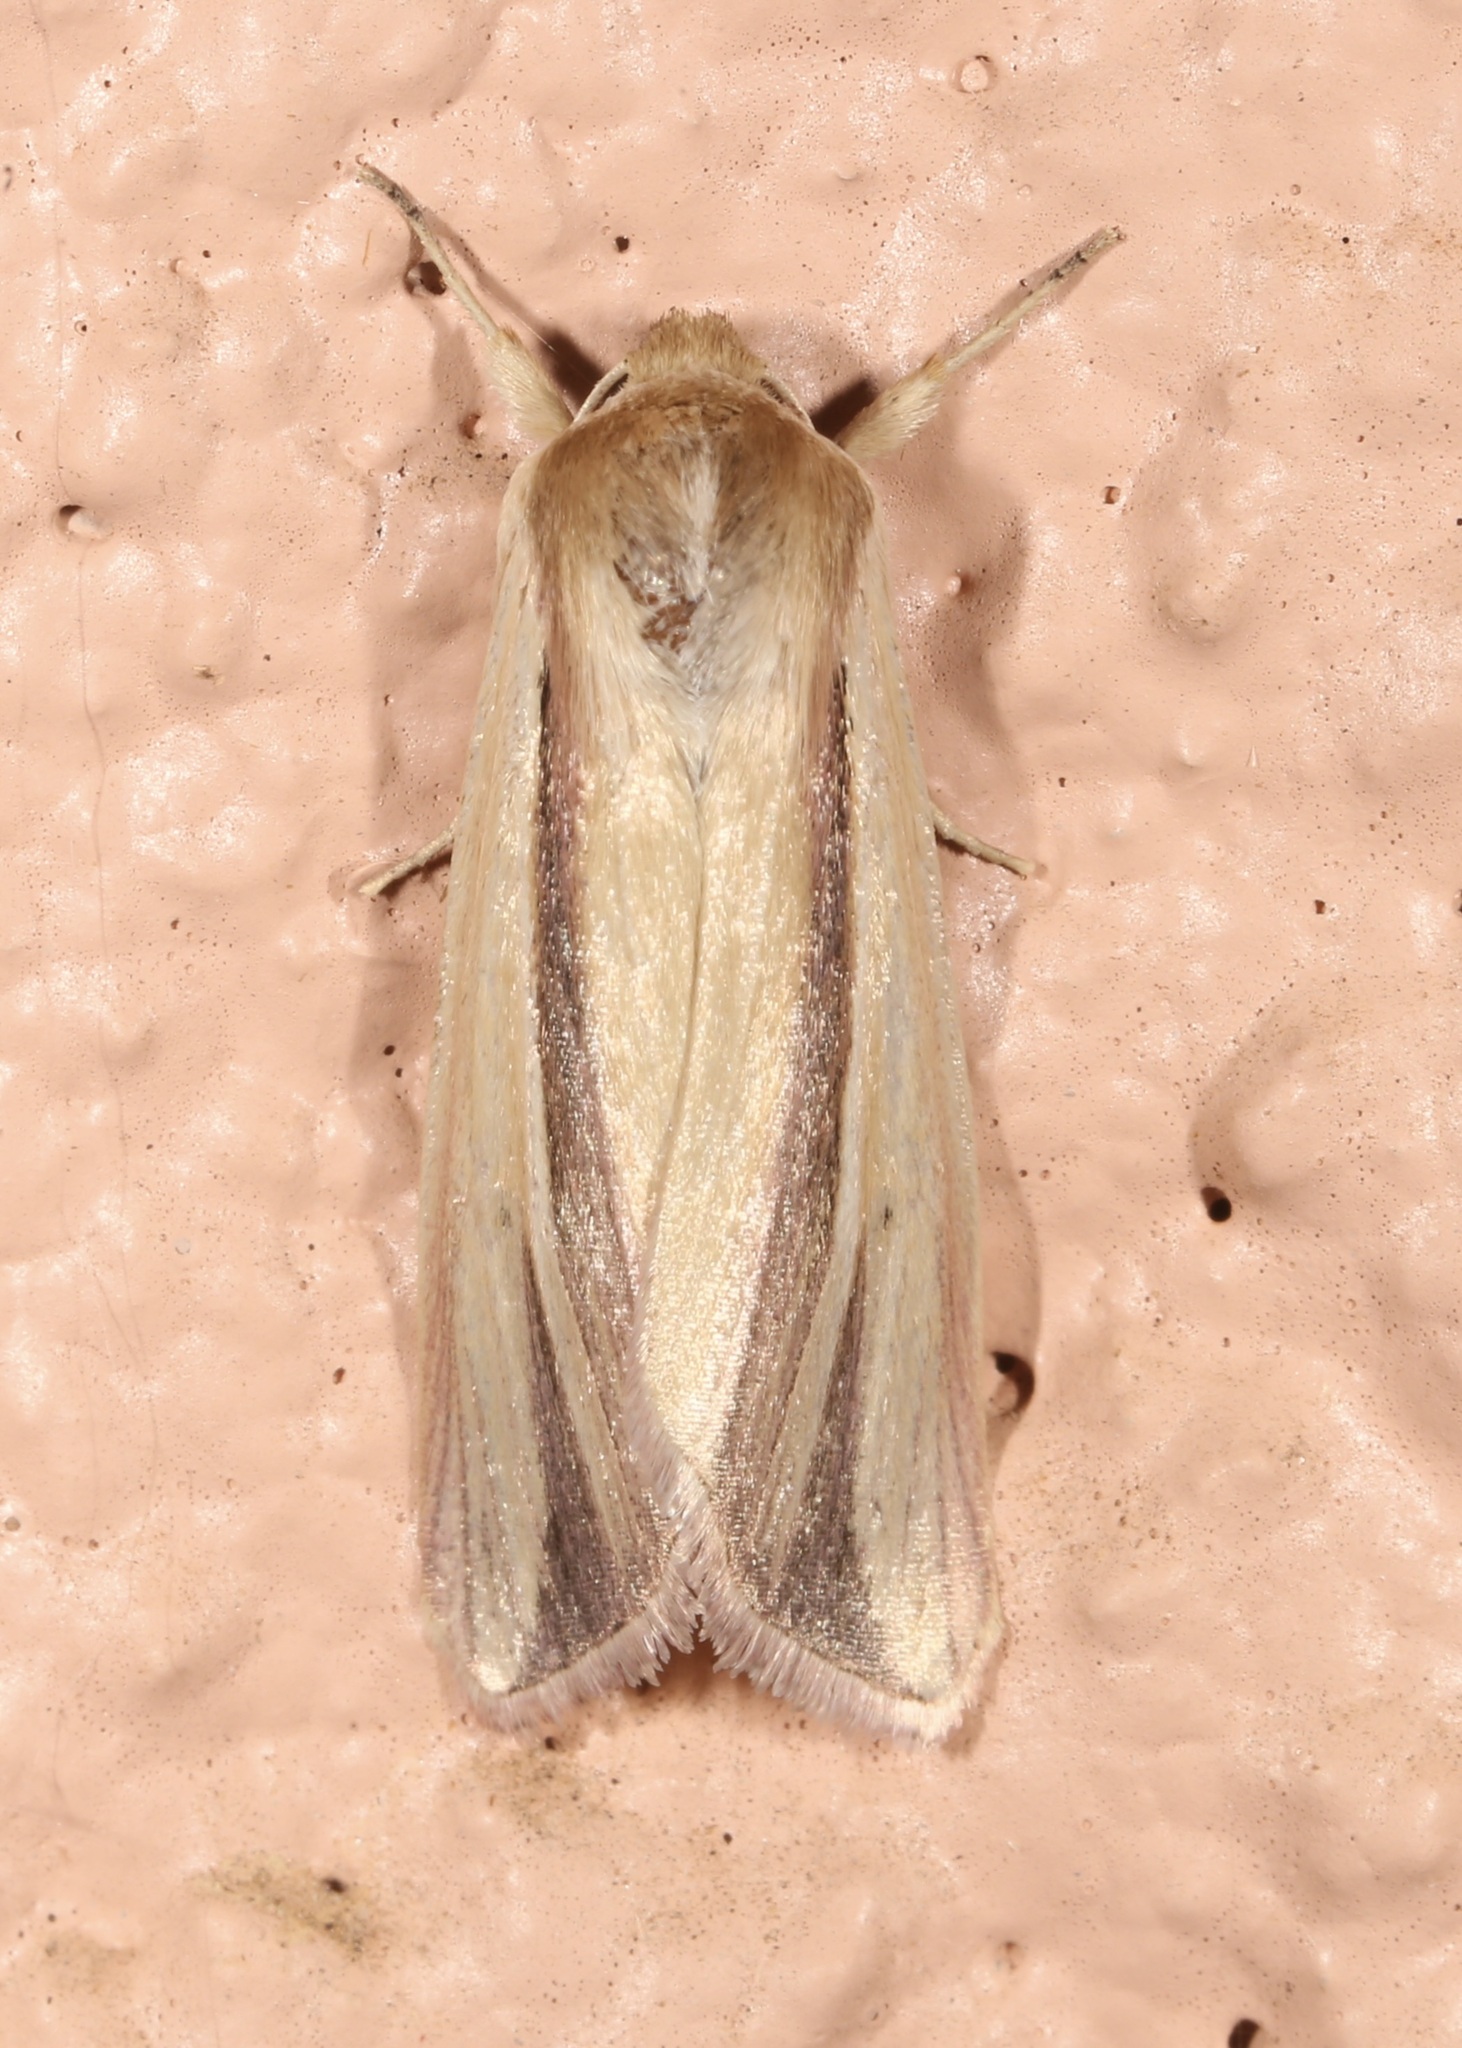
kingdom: Animalia
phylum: Arthropoda
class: Insecta
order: Lepidoptera
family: Noctuidae
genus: Dargida
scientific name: Dargida rubripennis
